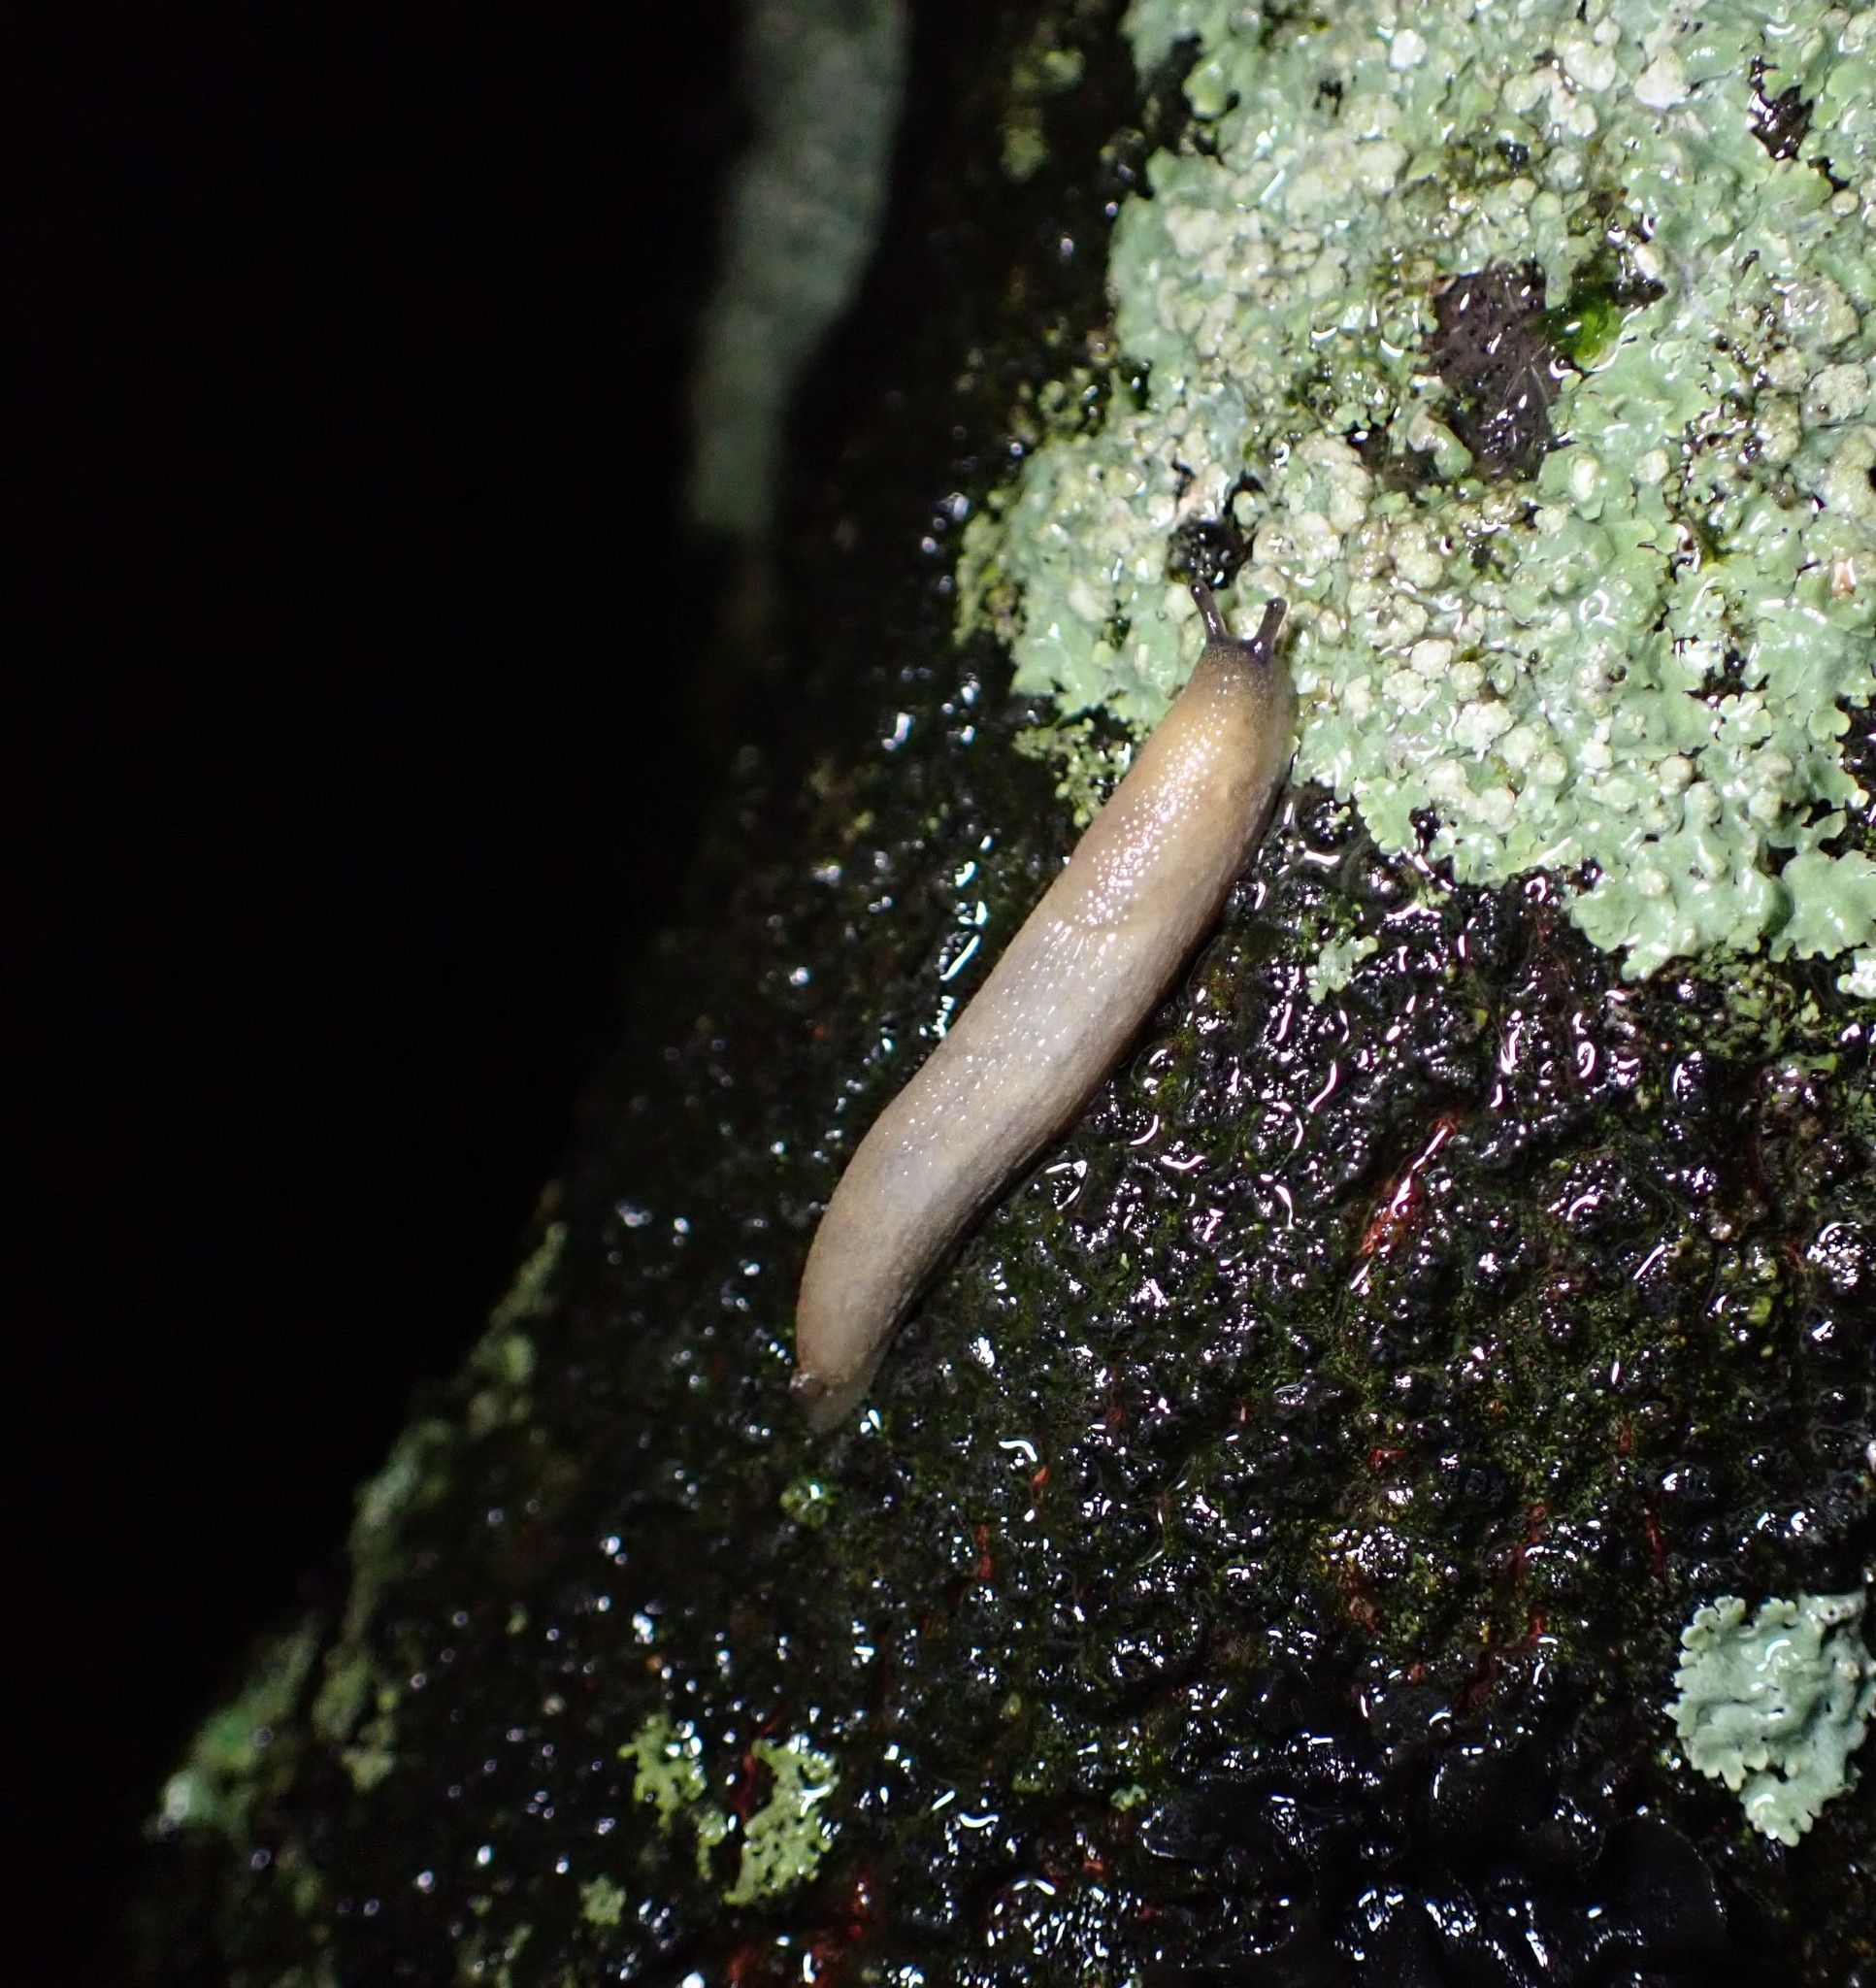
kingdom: Animalia
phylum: Mollusca
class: Gastropoda
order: Stylommatophora
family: Arionidae
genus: Arion
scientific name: Arion intermedius
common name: Hedgehog slug
